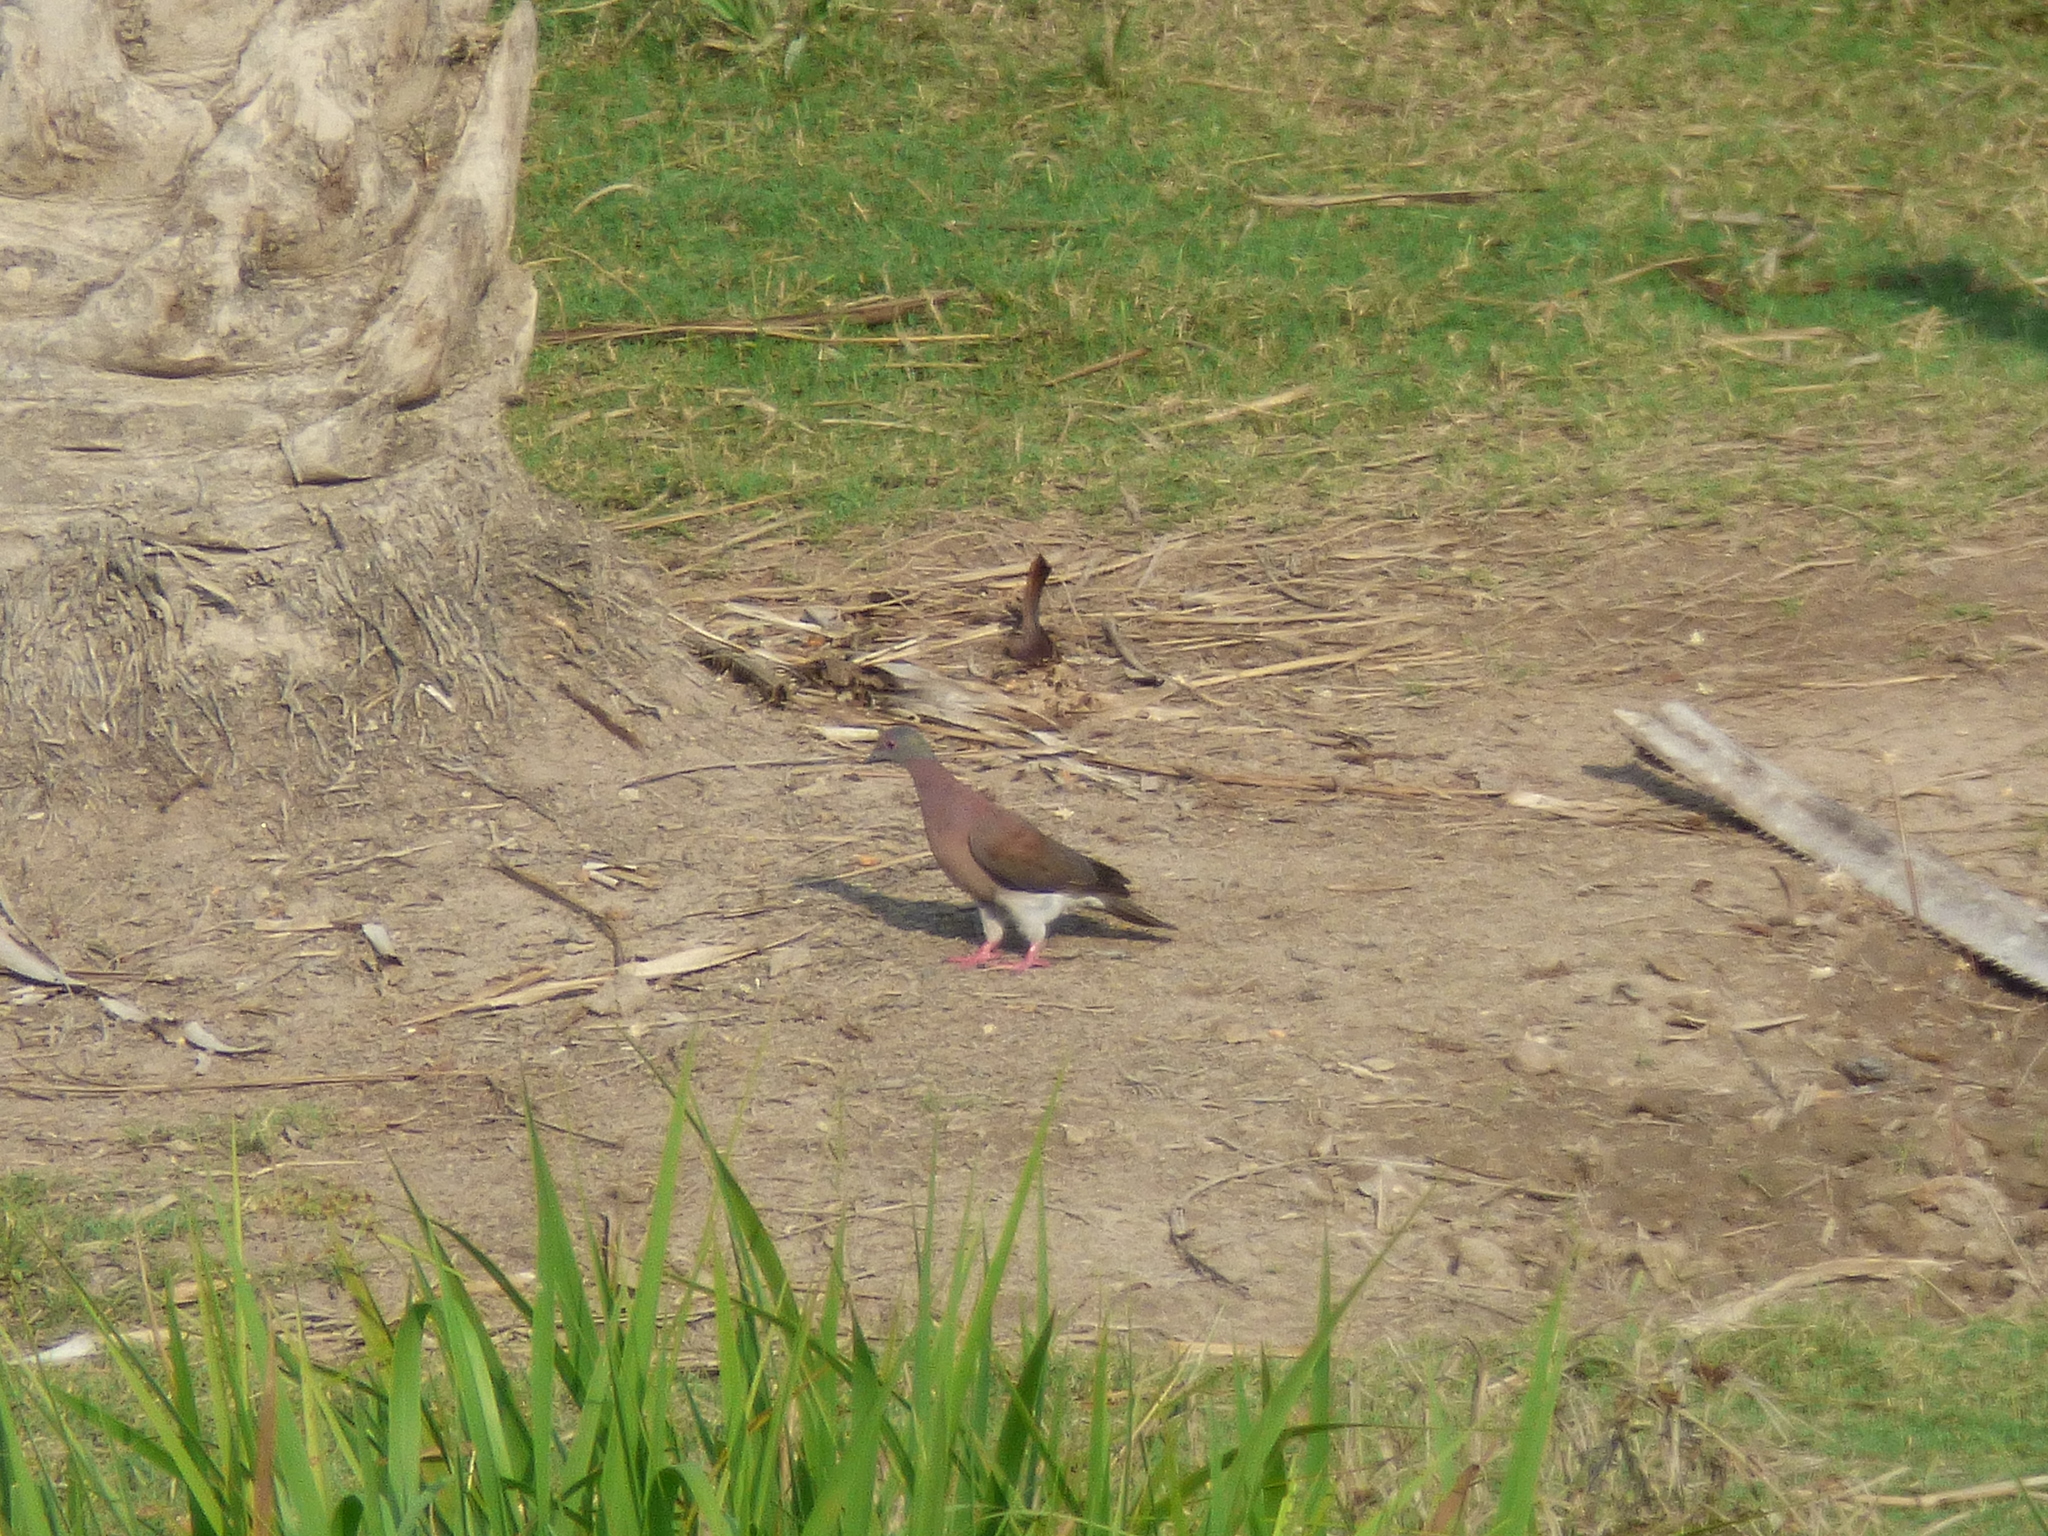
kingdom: Animalia
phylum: Chordata
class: Aves
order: Columbiformes
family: Columbidae
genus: Patagioenas
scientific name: Patagioenas cayennensis
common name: Pale-vented pigeon
